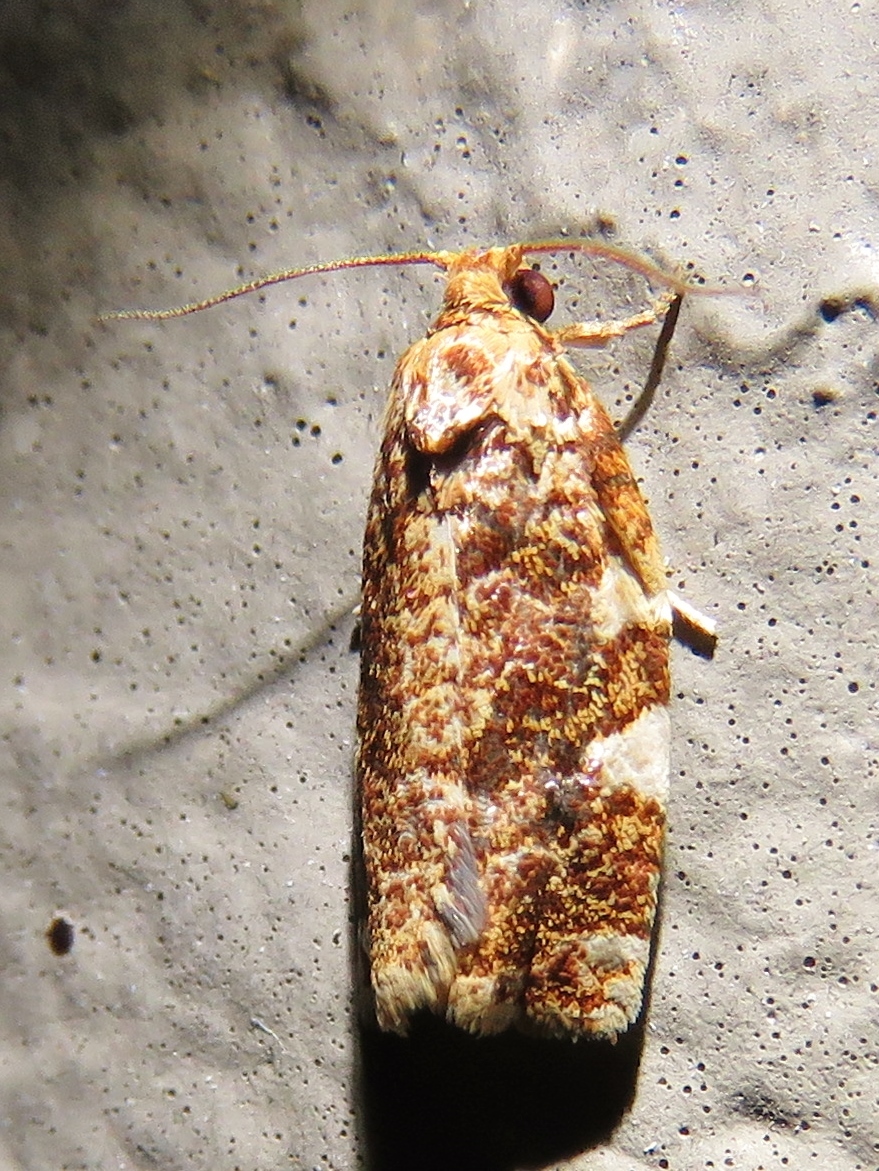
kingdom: Animalia
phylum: Arthropoda
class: Insecta
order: Lepidoptera
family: Tortricidae
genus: Archips
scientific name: Archips argyrospila
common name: Fruit-tree leafroller moth
